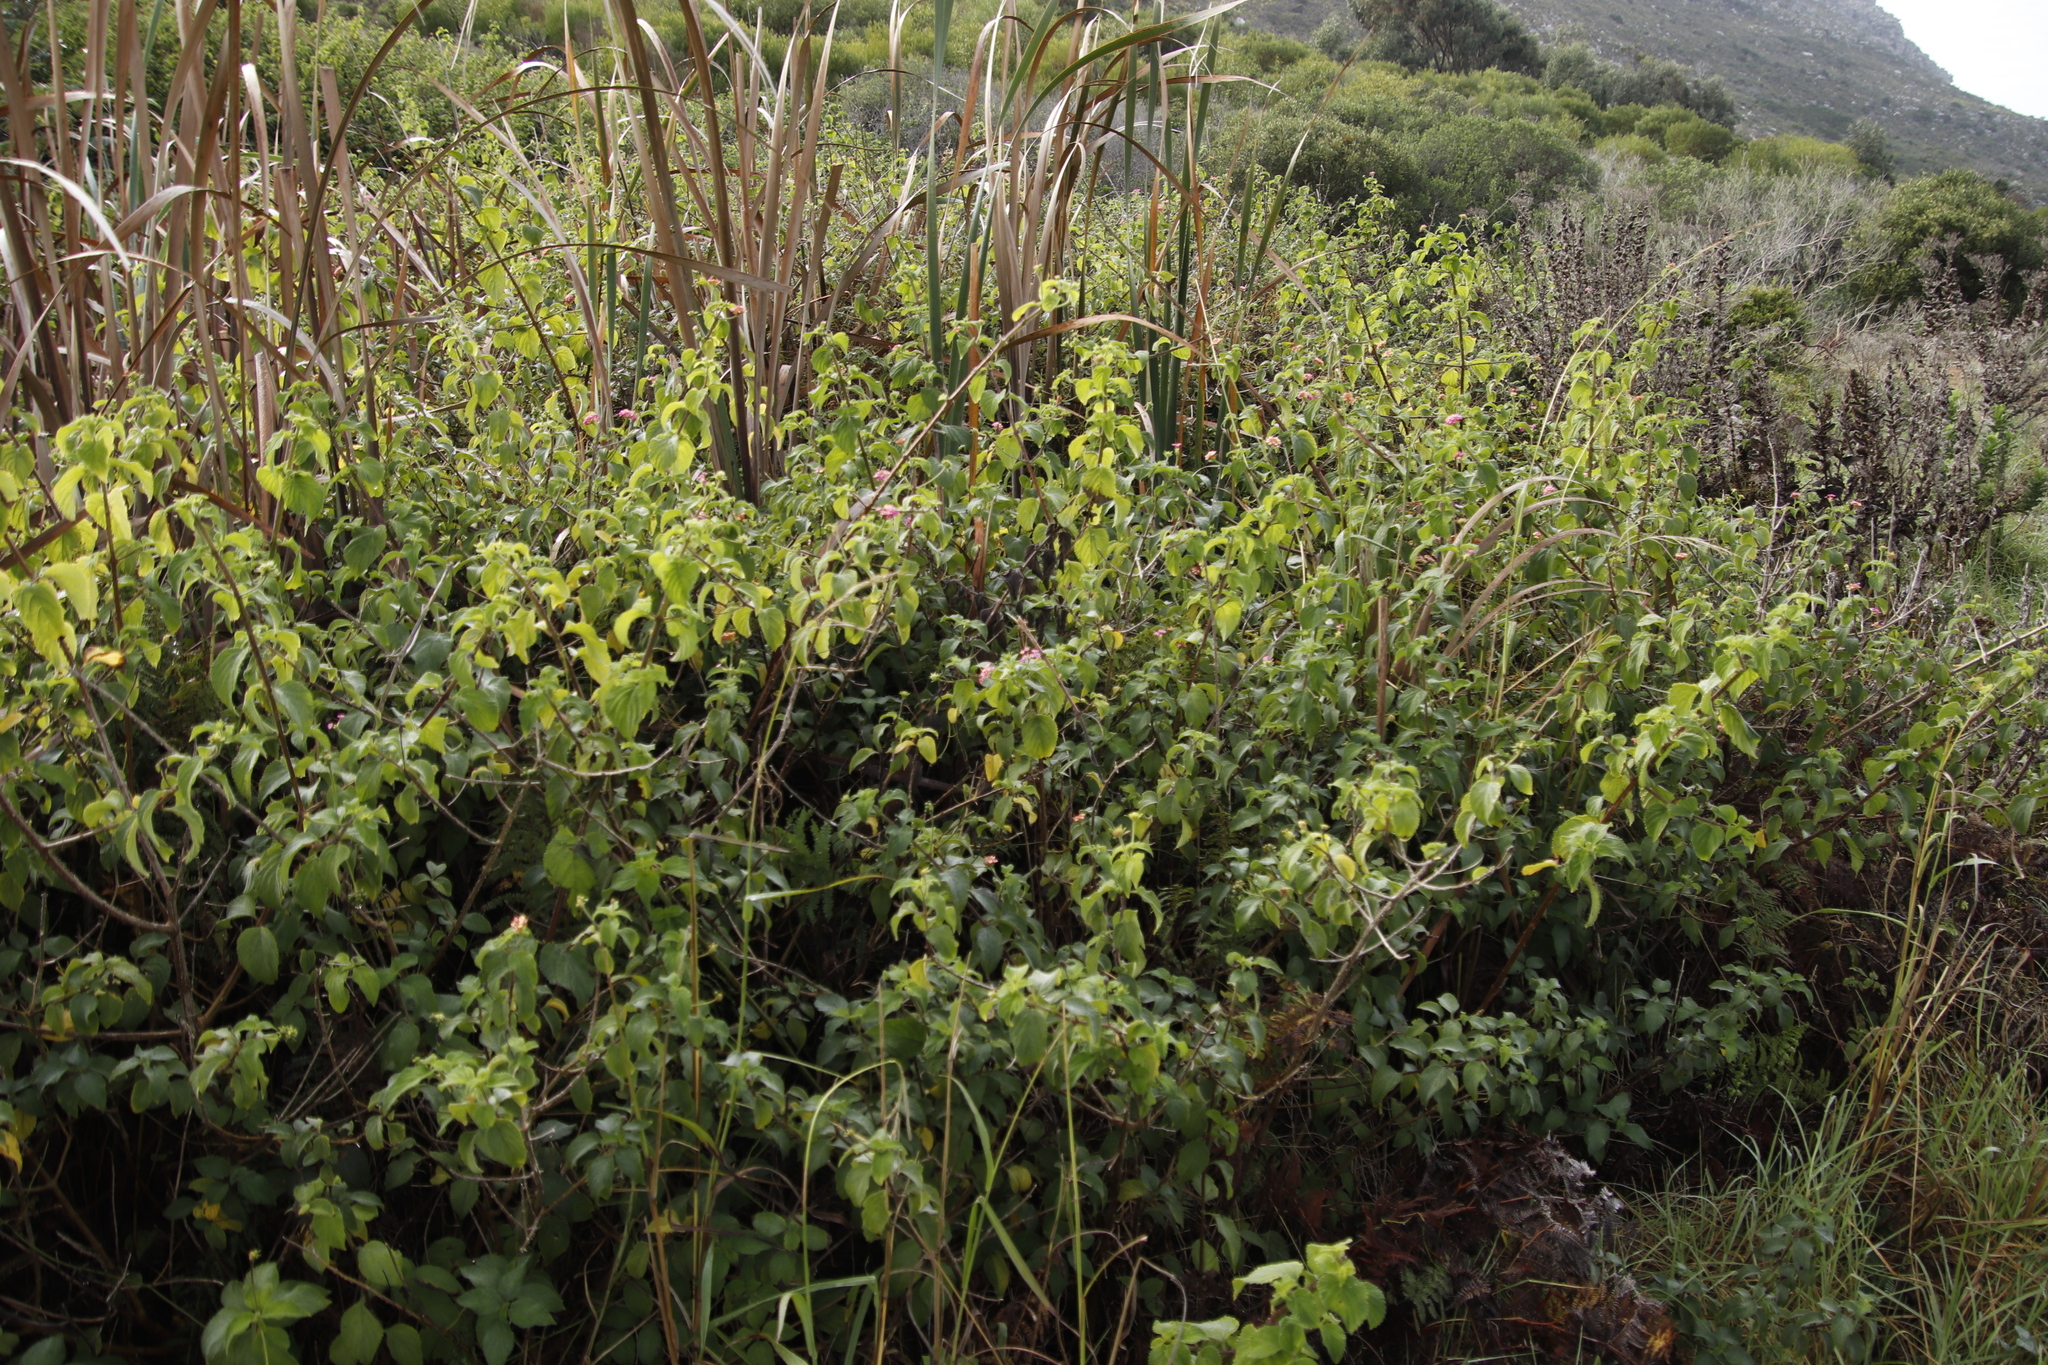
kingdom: Plantae
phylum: Tracheophyta
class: Magnoliopsida
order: Lamiales
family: Verbenaceae
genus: Lantana
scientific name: Lantana camara
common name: Lantana
